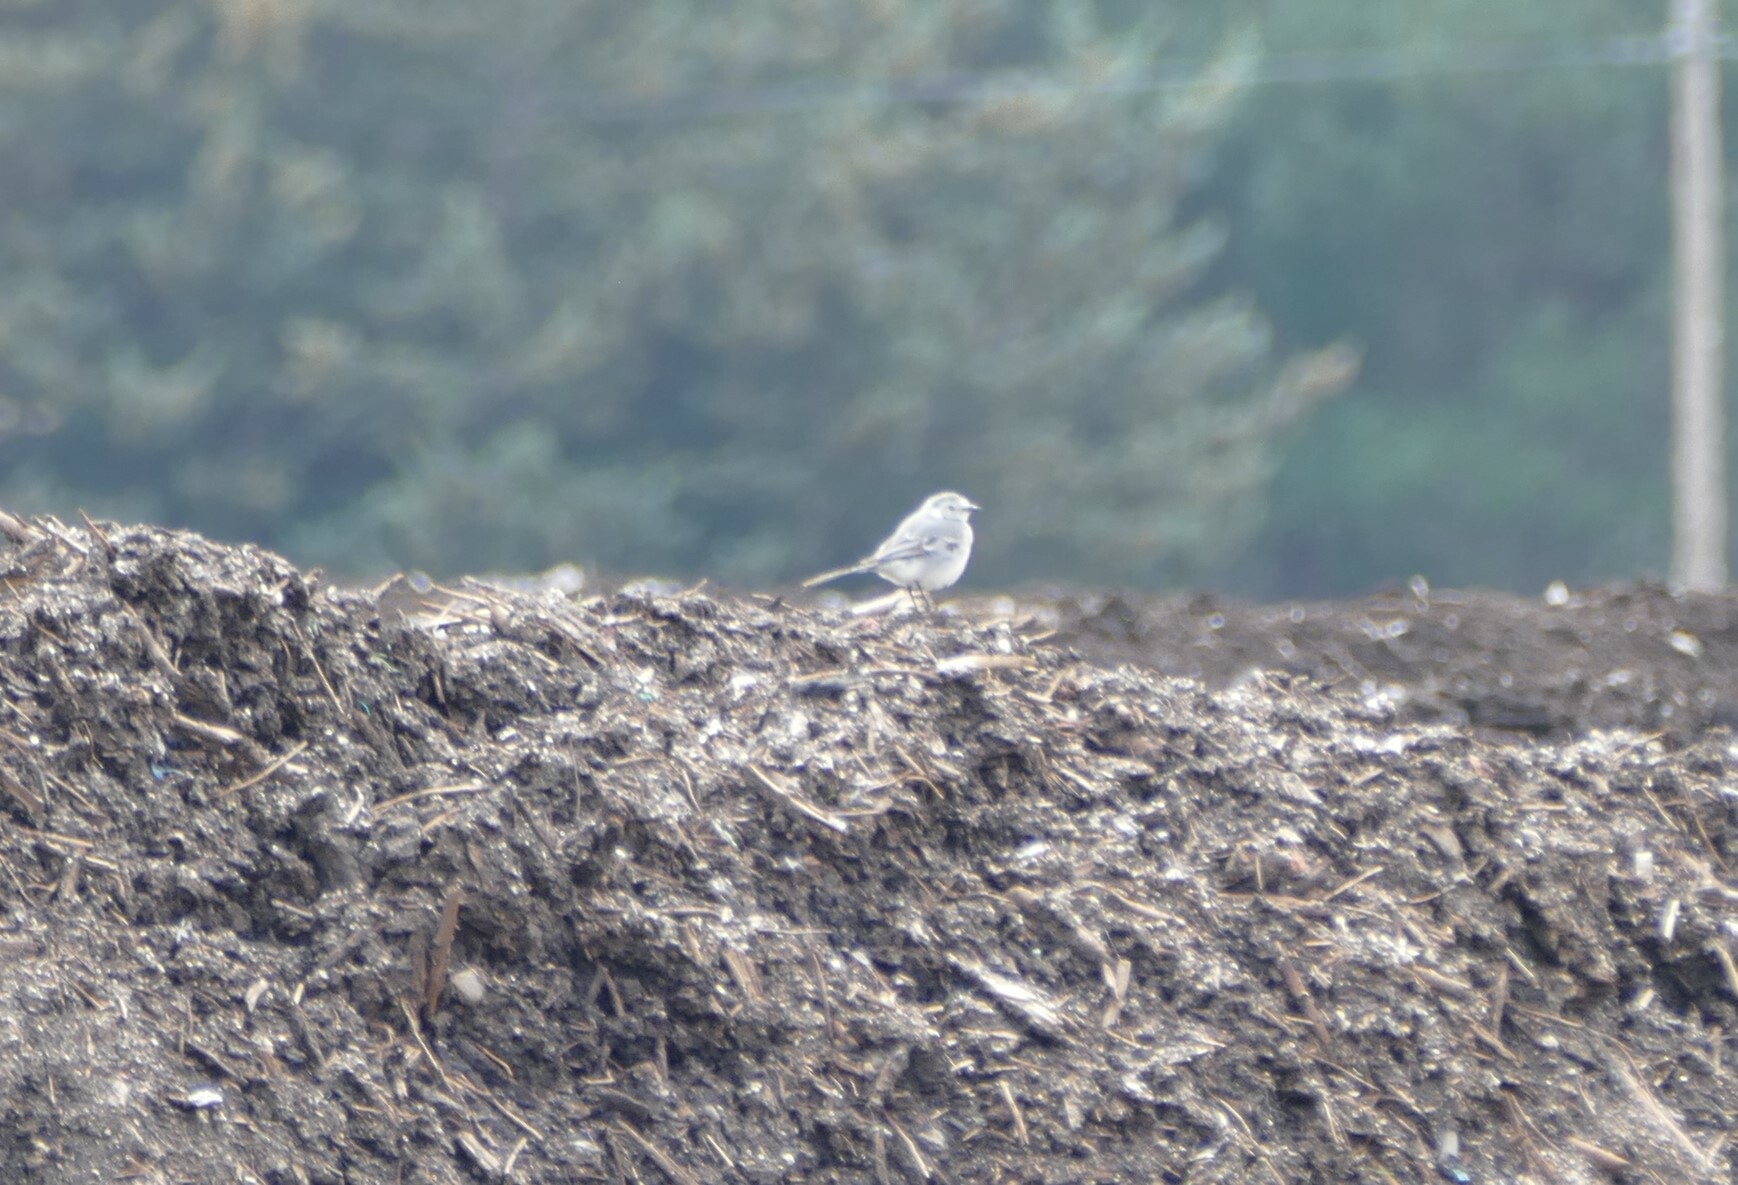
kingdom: Animalia
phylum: Chordata
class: Aves
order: Passeriformes
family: Motacillidae
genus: Motacilla
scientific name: Motacilla alba
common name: White wagtail
